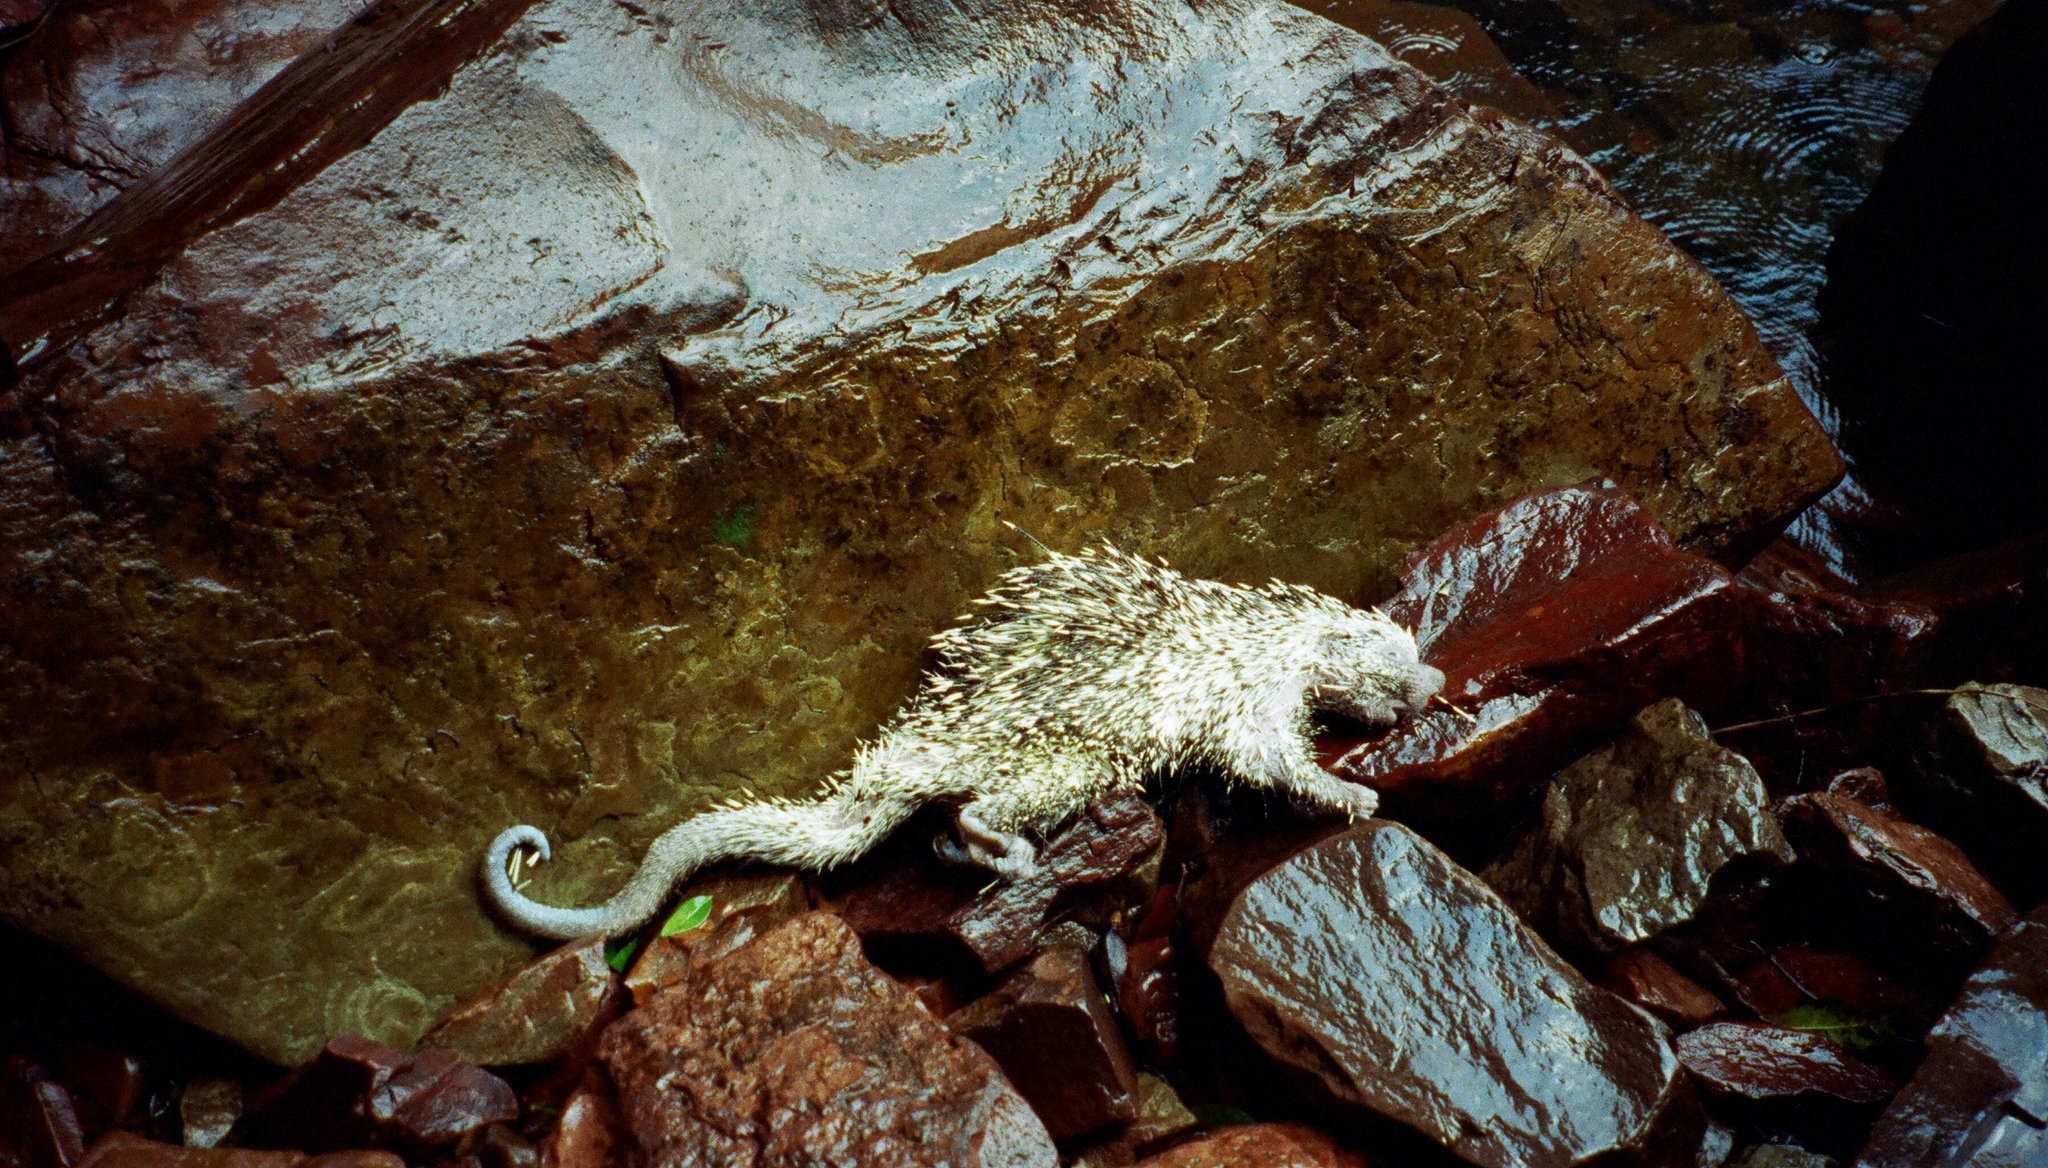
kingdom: Animalia
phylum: Chordata
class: Mammalia
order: Rodentia
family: Erethizontidae
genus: Coendou
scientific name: Coendou longicaudatus
